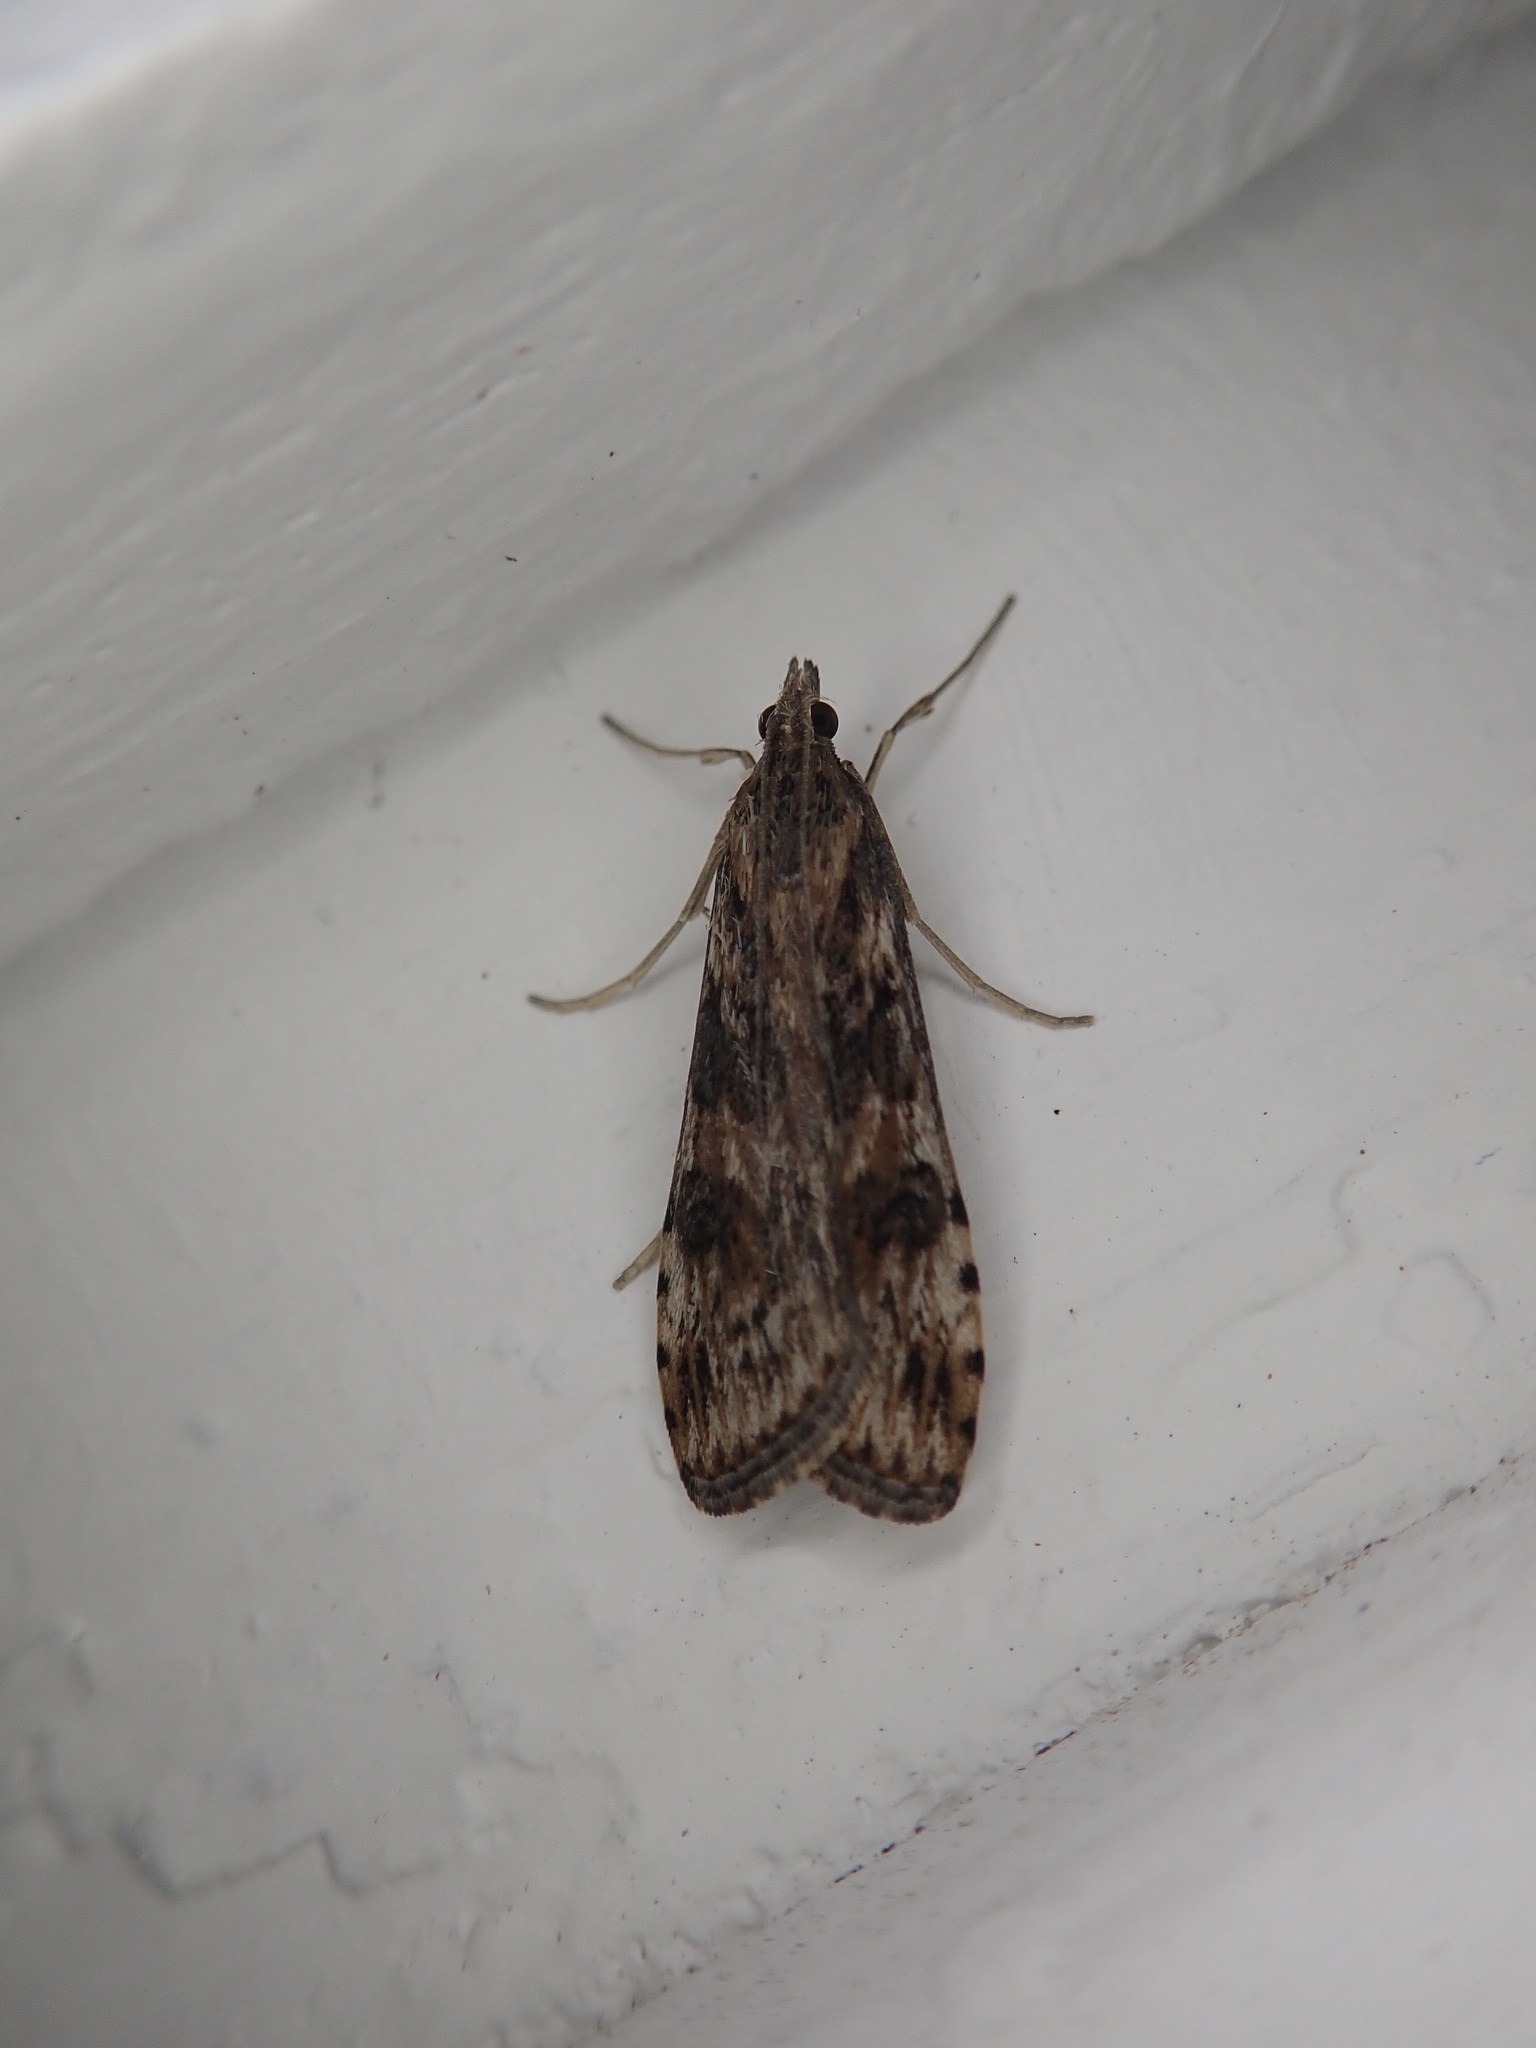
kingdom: Animalia
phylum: Arthropoda
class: Insecta
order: Lepidoptera
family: Crambidae
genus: Nomophila
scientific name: Nomophila nearctica
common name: American rush veneer
